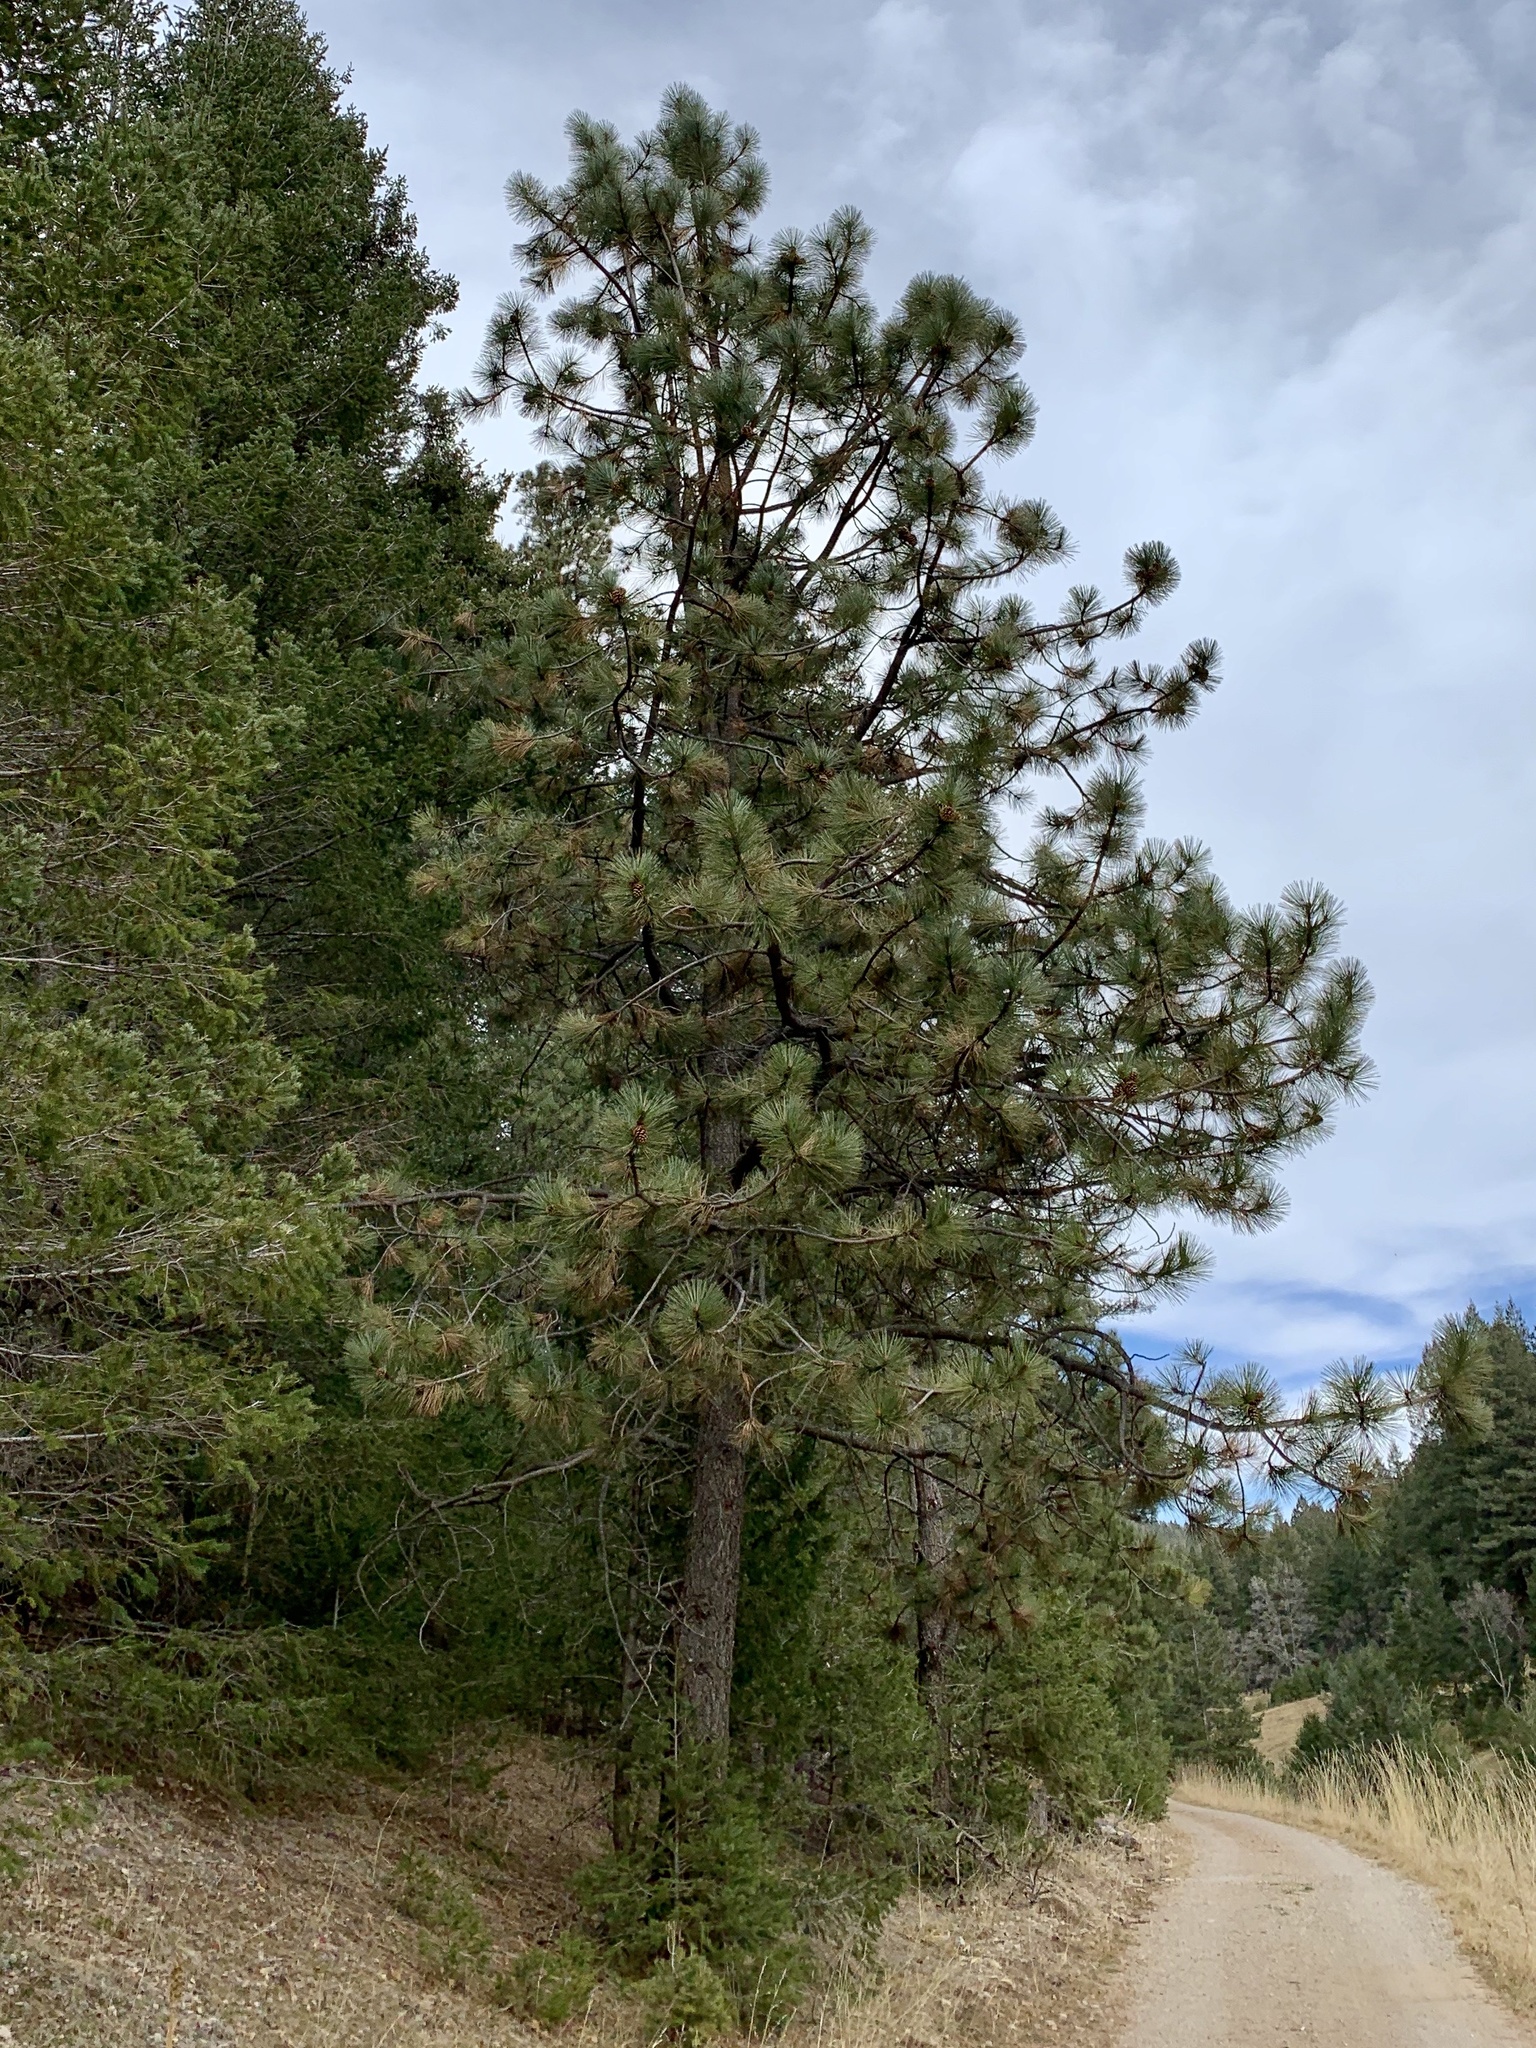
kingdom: Plantae
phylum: Tracheophyta
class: Pinopsida
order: Pinales
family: Pinaceae
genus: Pinus
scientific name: Pinus ponderosa
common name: Western yellow-pine
